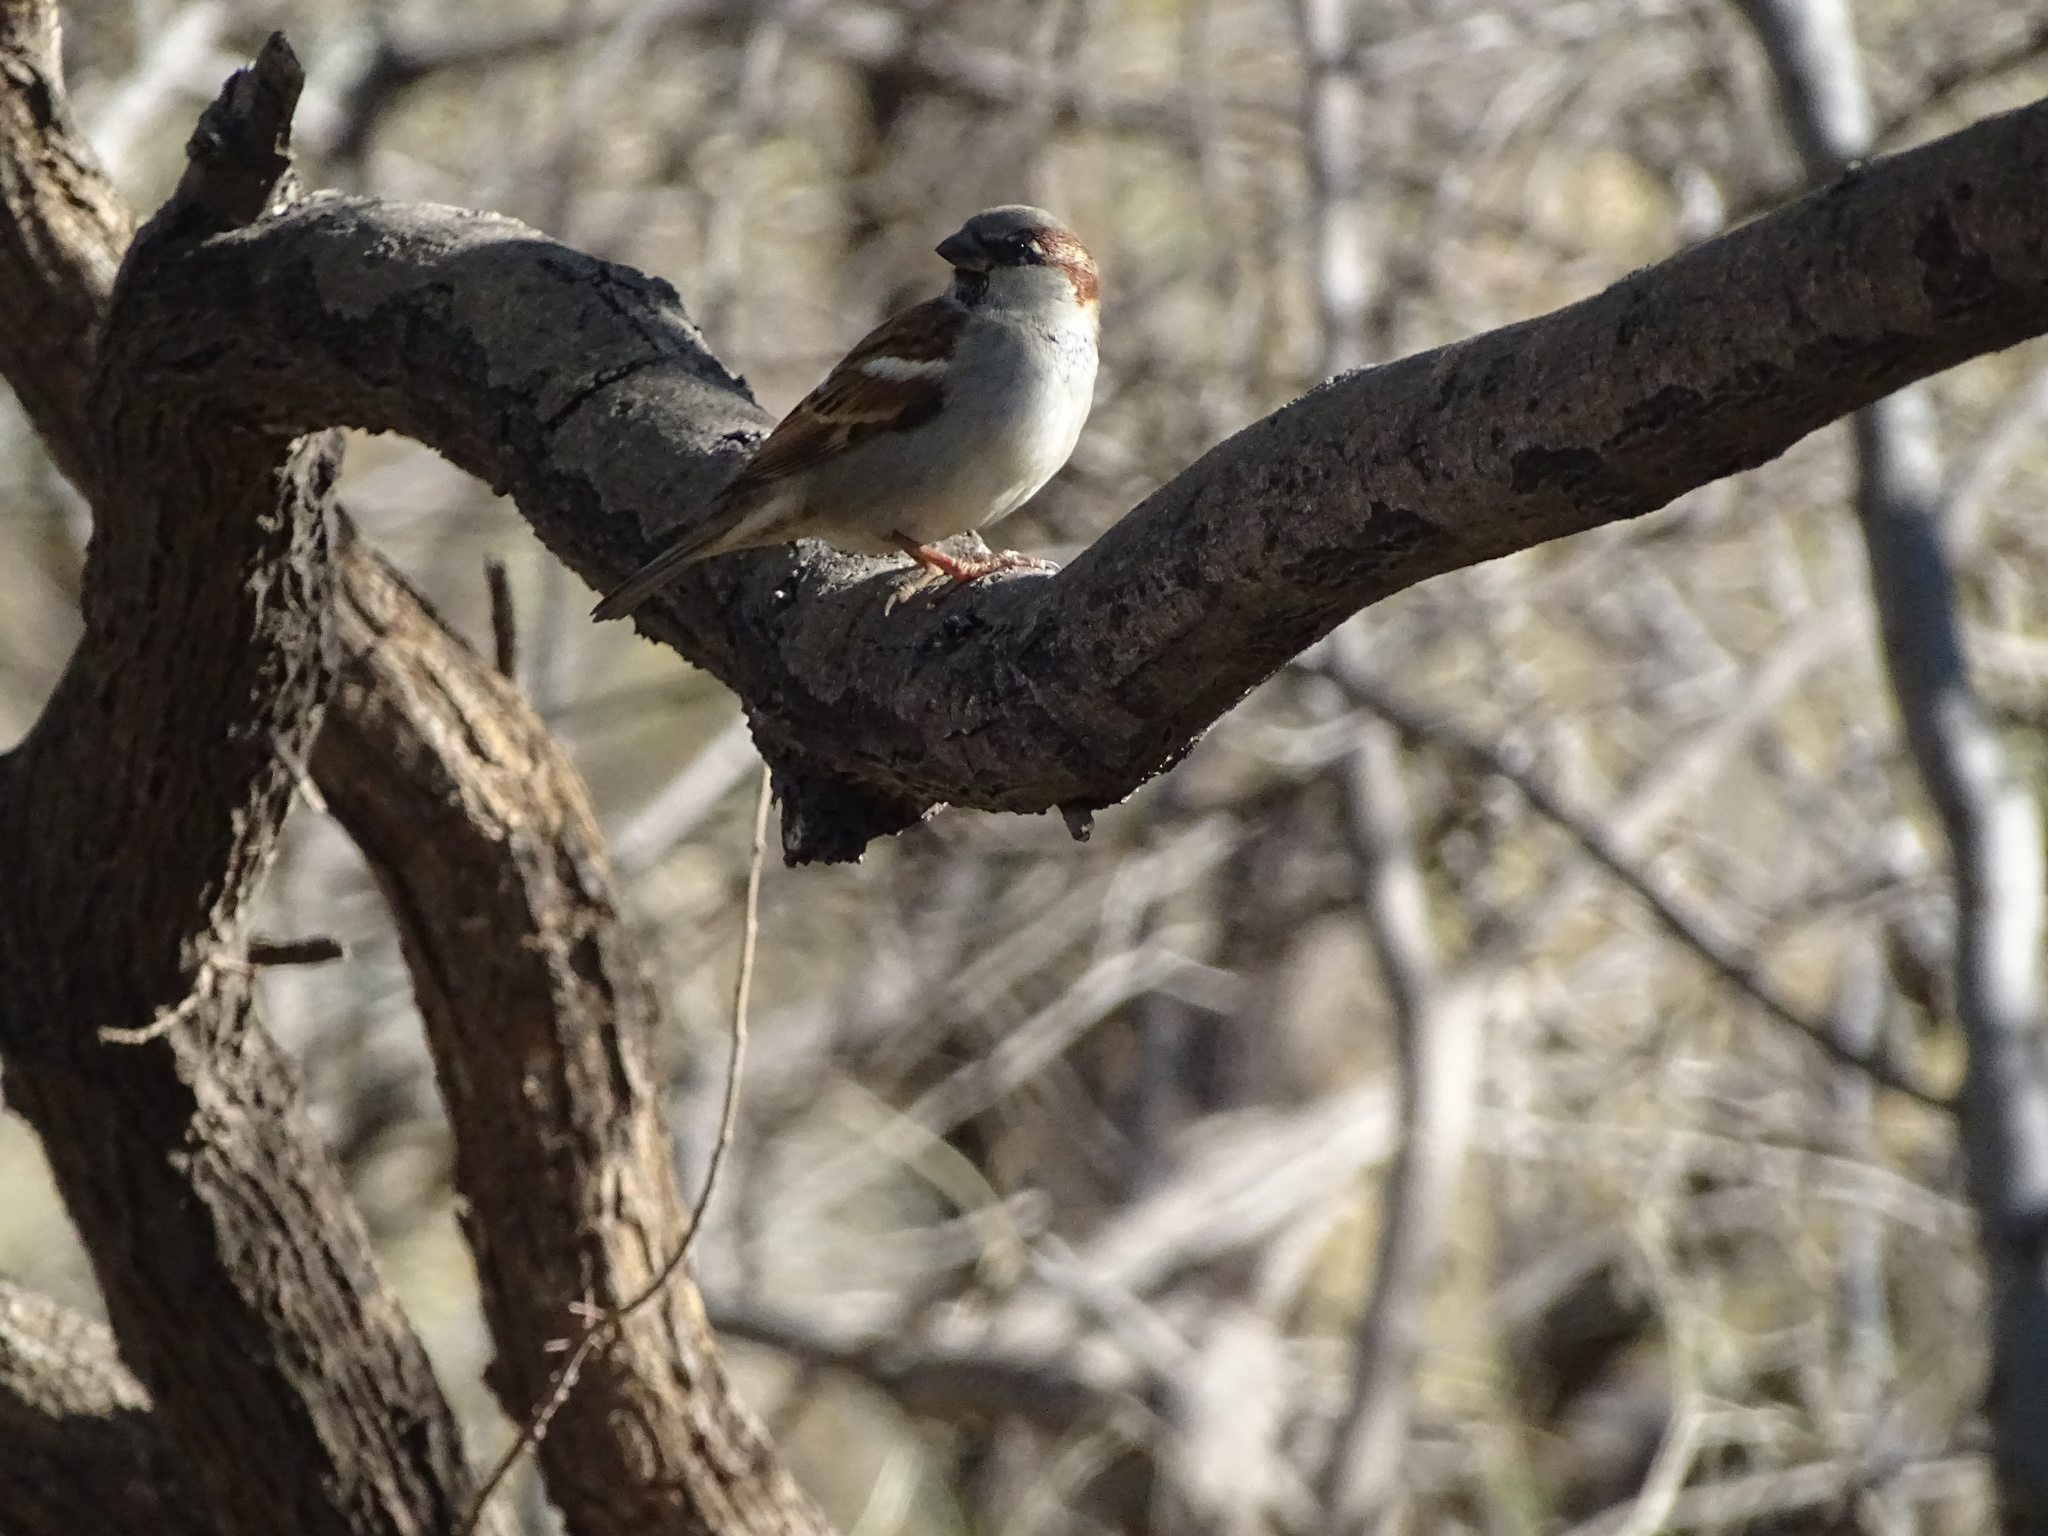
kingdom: Animalia
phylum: Chordata
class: Aves
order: Passeriformes
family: Passeridae
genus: Passer
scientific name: Passer domesticus
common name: House sparrow
